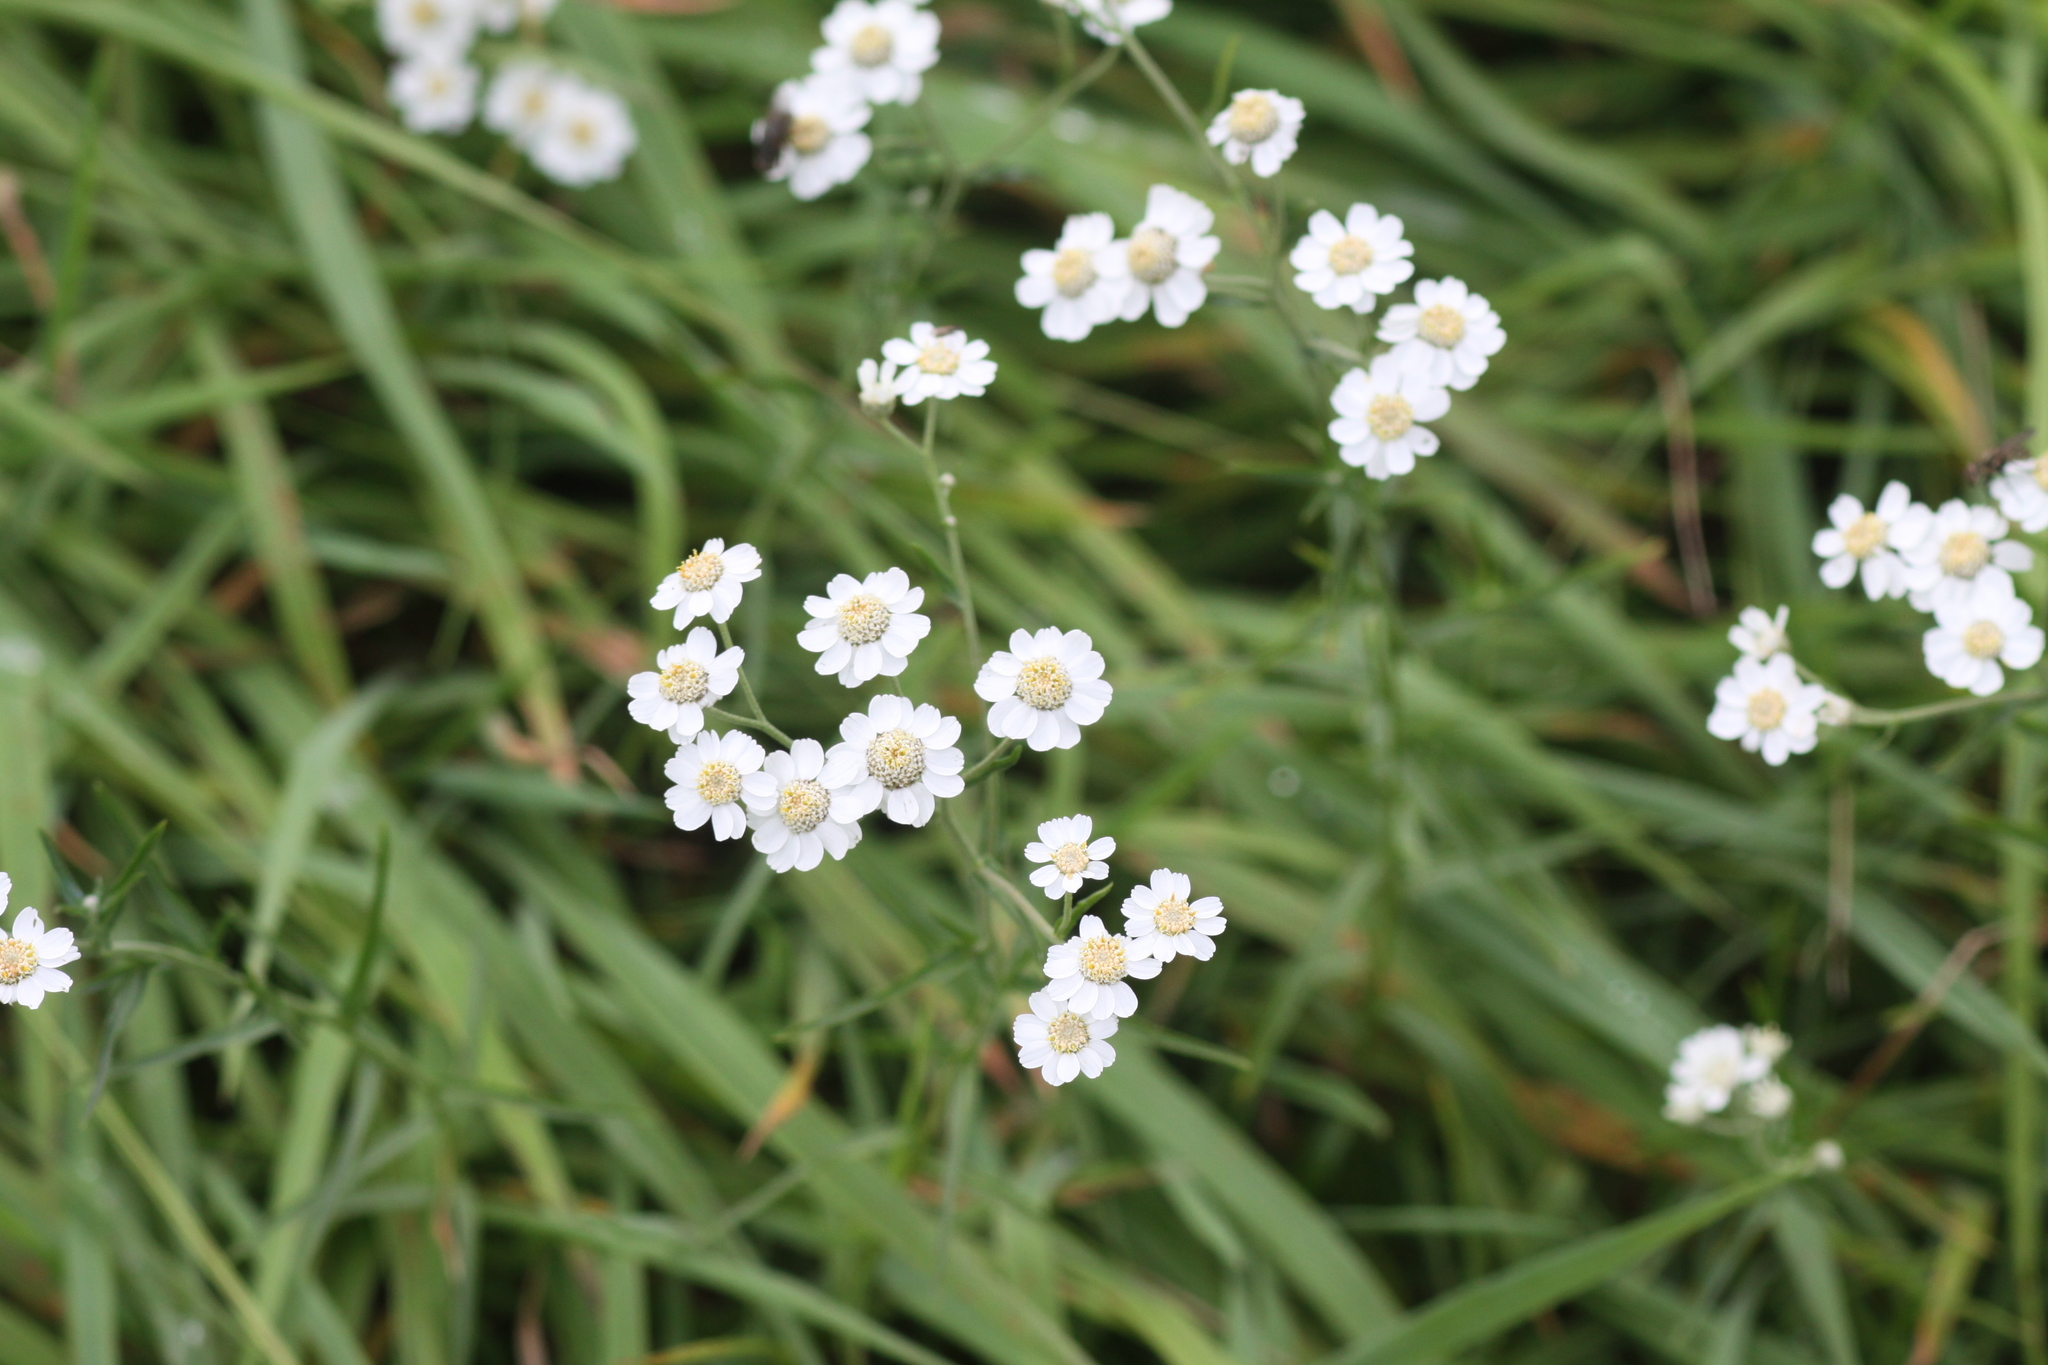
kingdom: Plantae
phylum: Tracheophyta
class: Magnoliopsida
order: Asterales
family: Asteraceae
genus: Achillea
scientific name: Achillea ptarmica
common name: Sneezeweed
